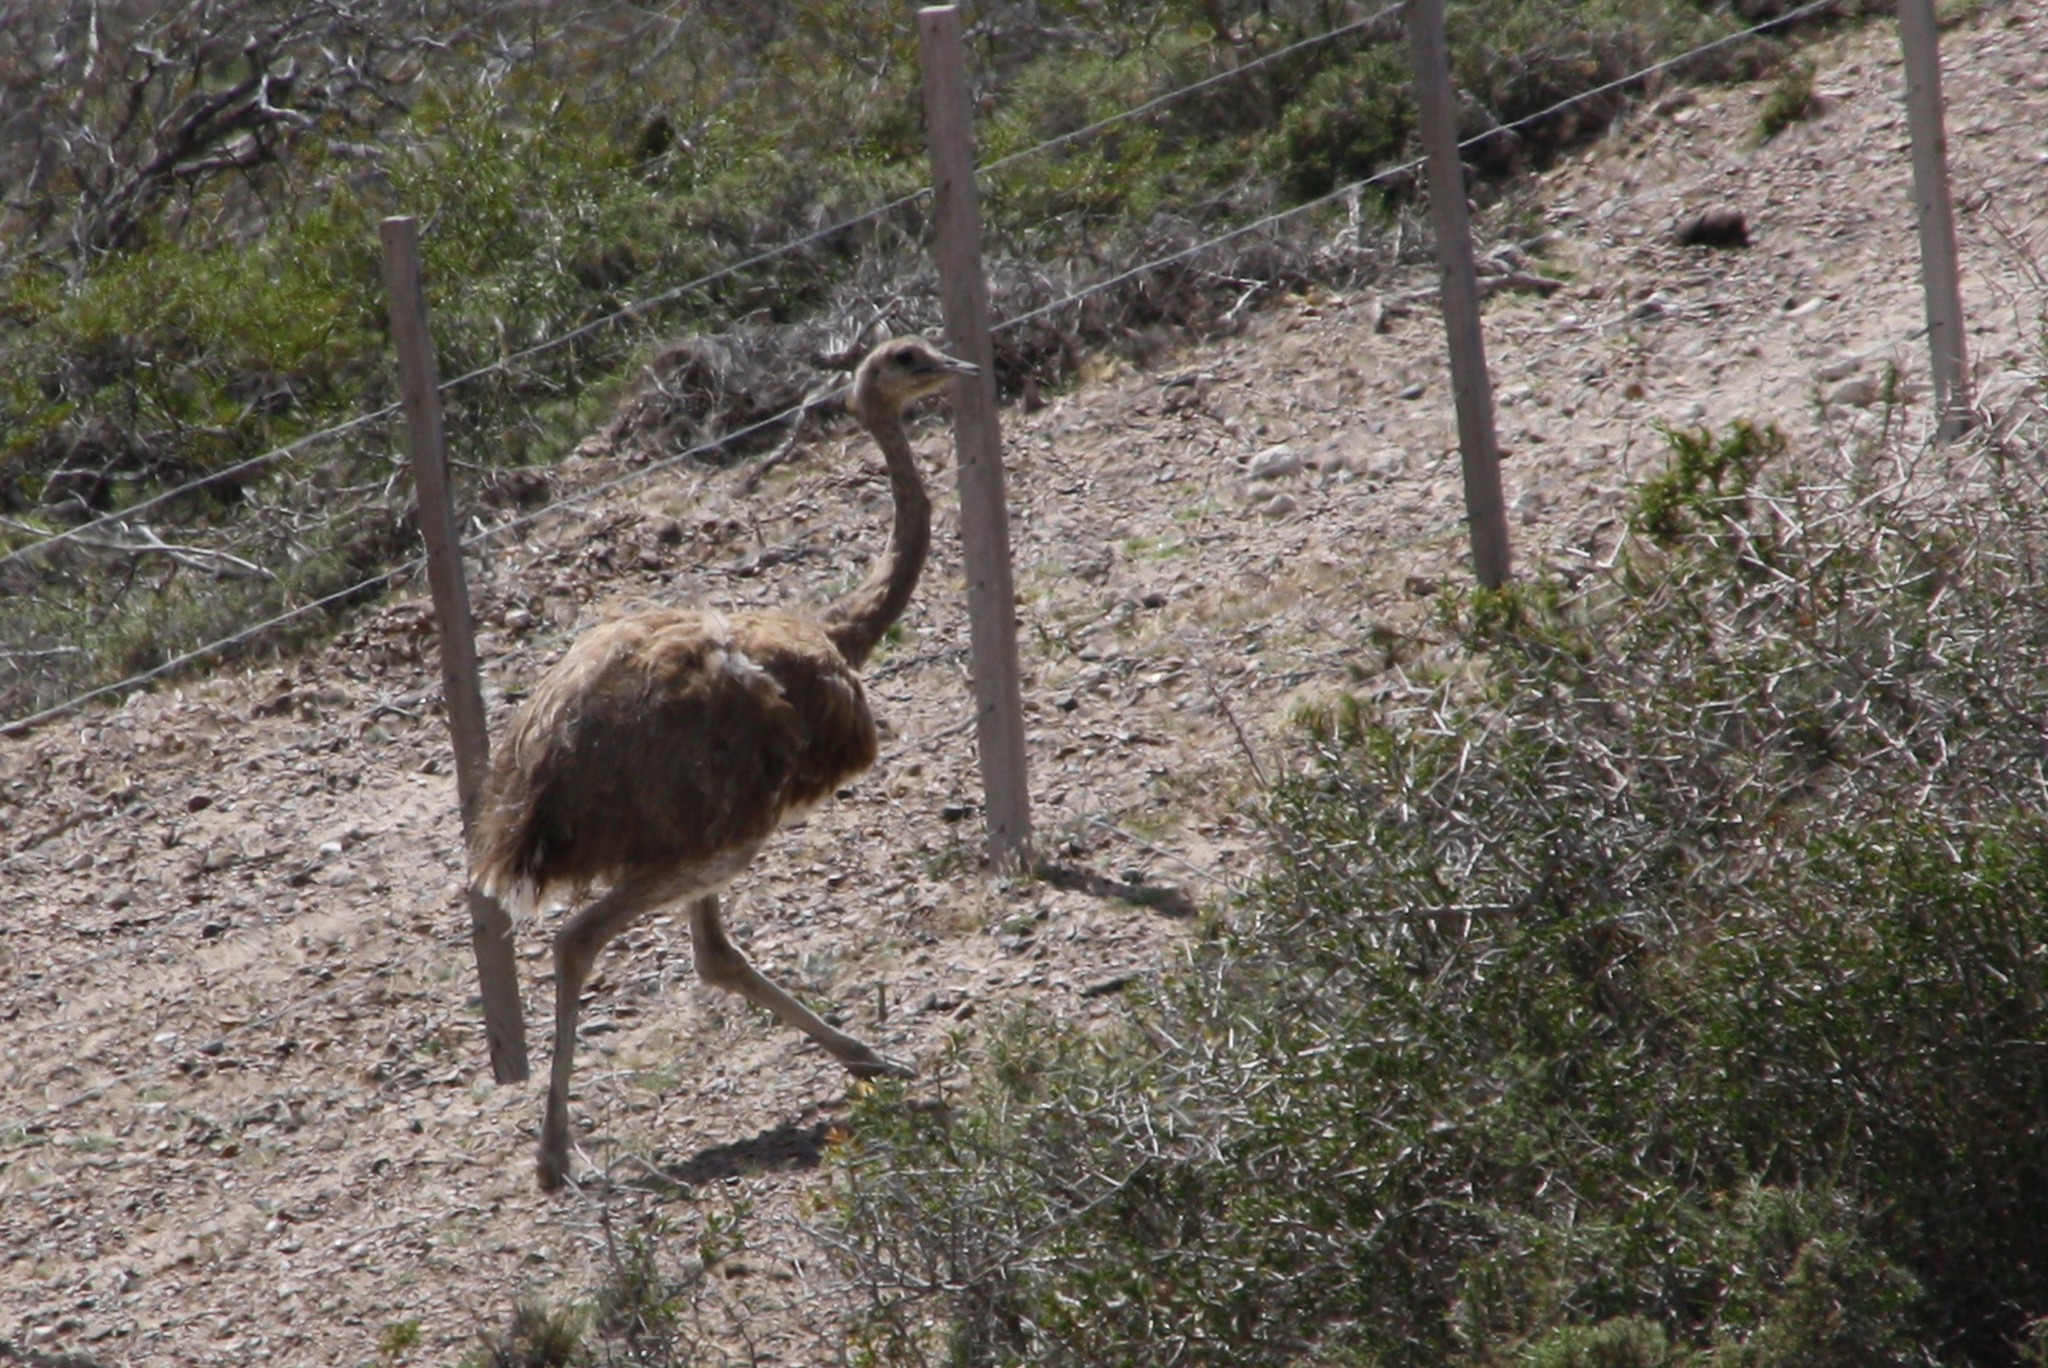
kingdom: Animalia
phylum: Chordata
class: Aves
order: Rheiformes
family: Rheidae
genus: Rhea
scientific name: Rhea pennata
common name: Lesser rhea
